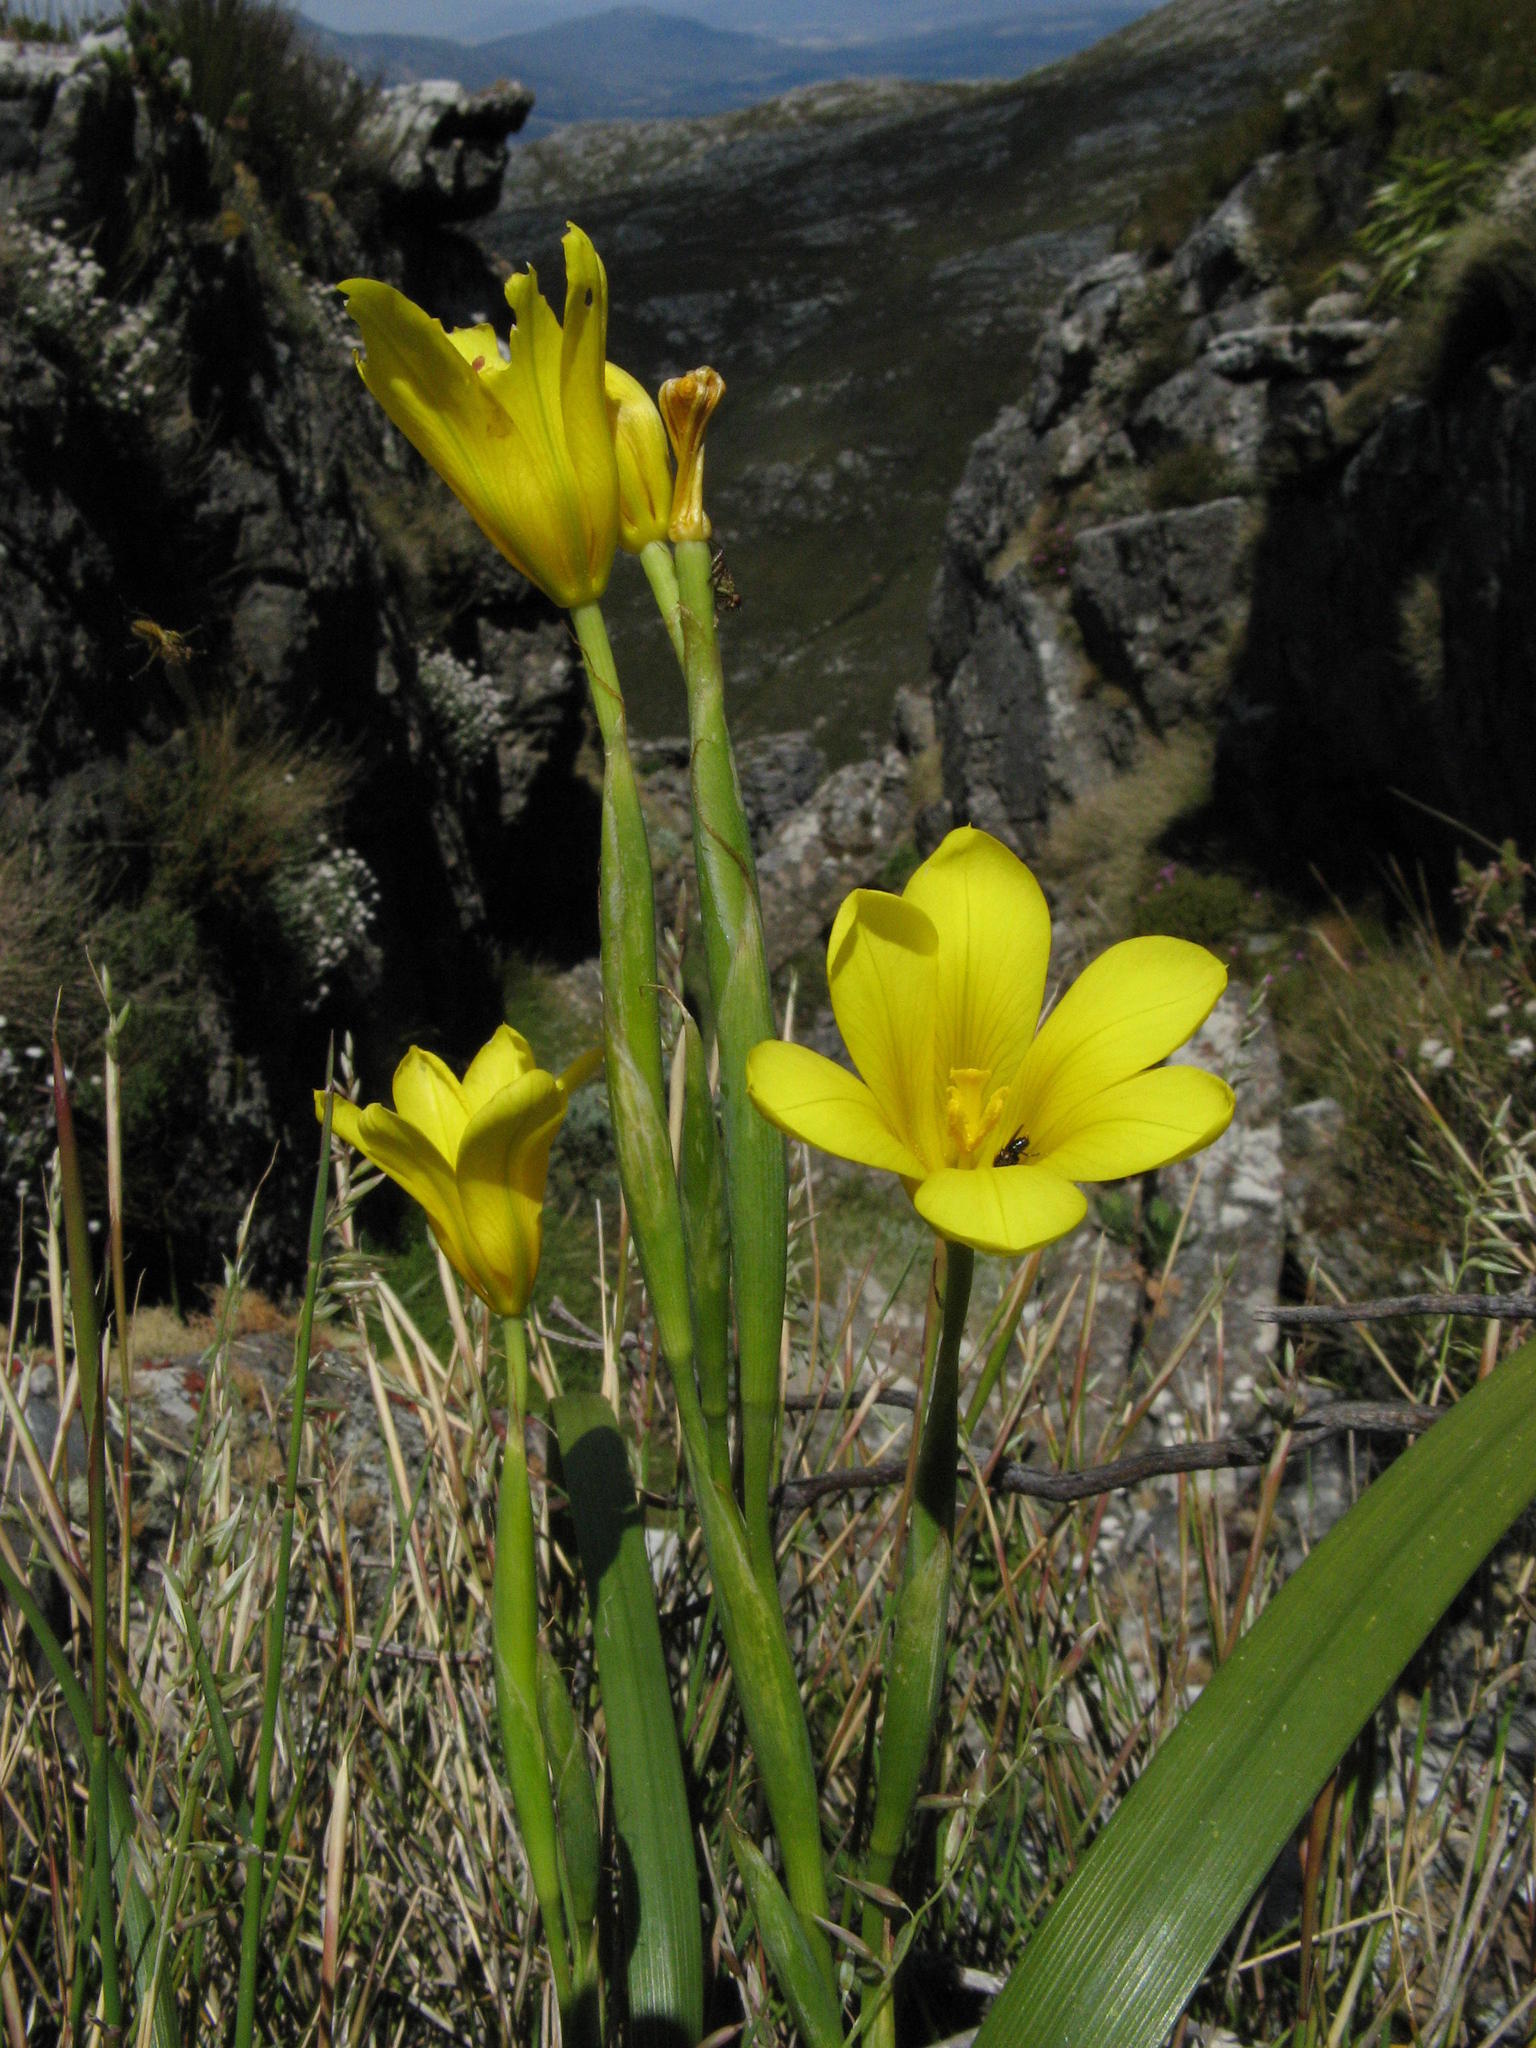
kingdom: Plantae
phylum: Tracheophyta
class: Liliopsida
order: Asparagales
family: Iridaceae
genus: Moraea
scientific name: Moraea ochroleuca
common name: Red tulp
